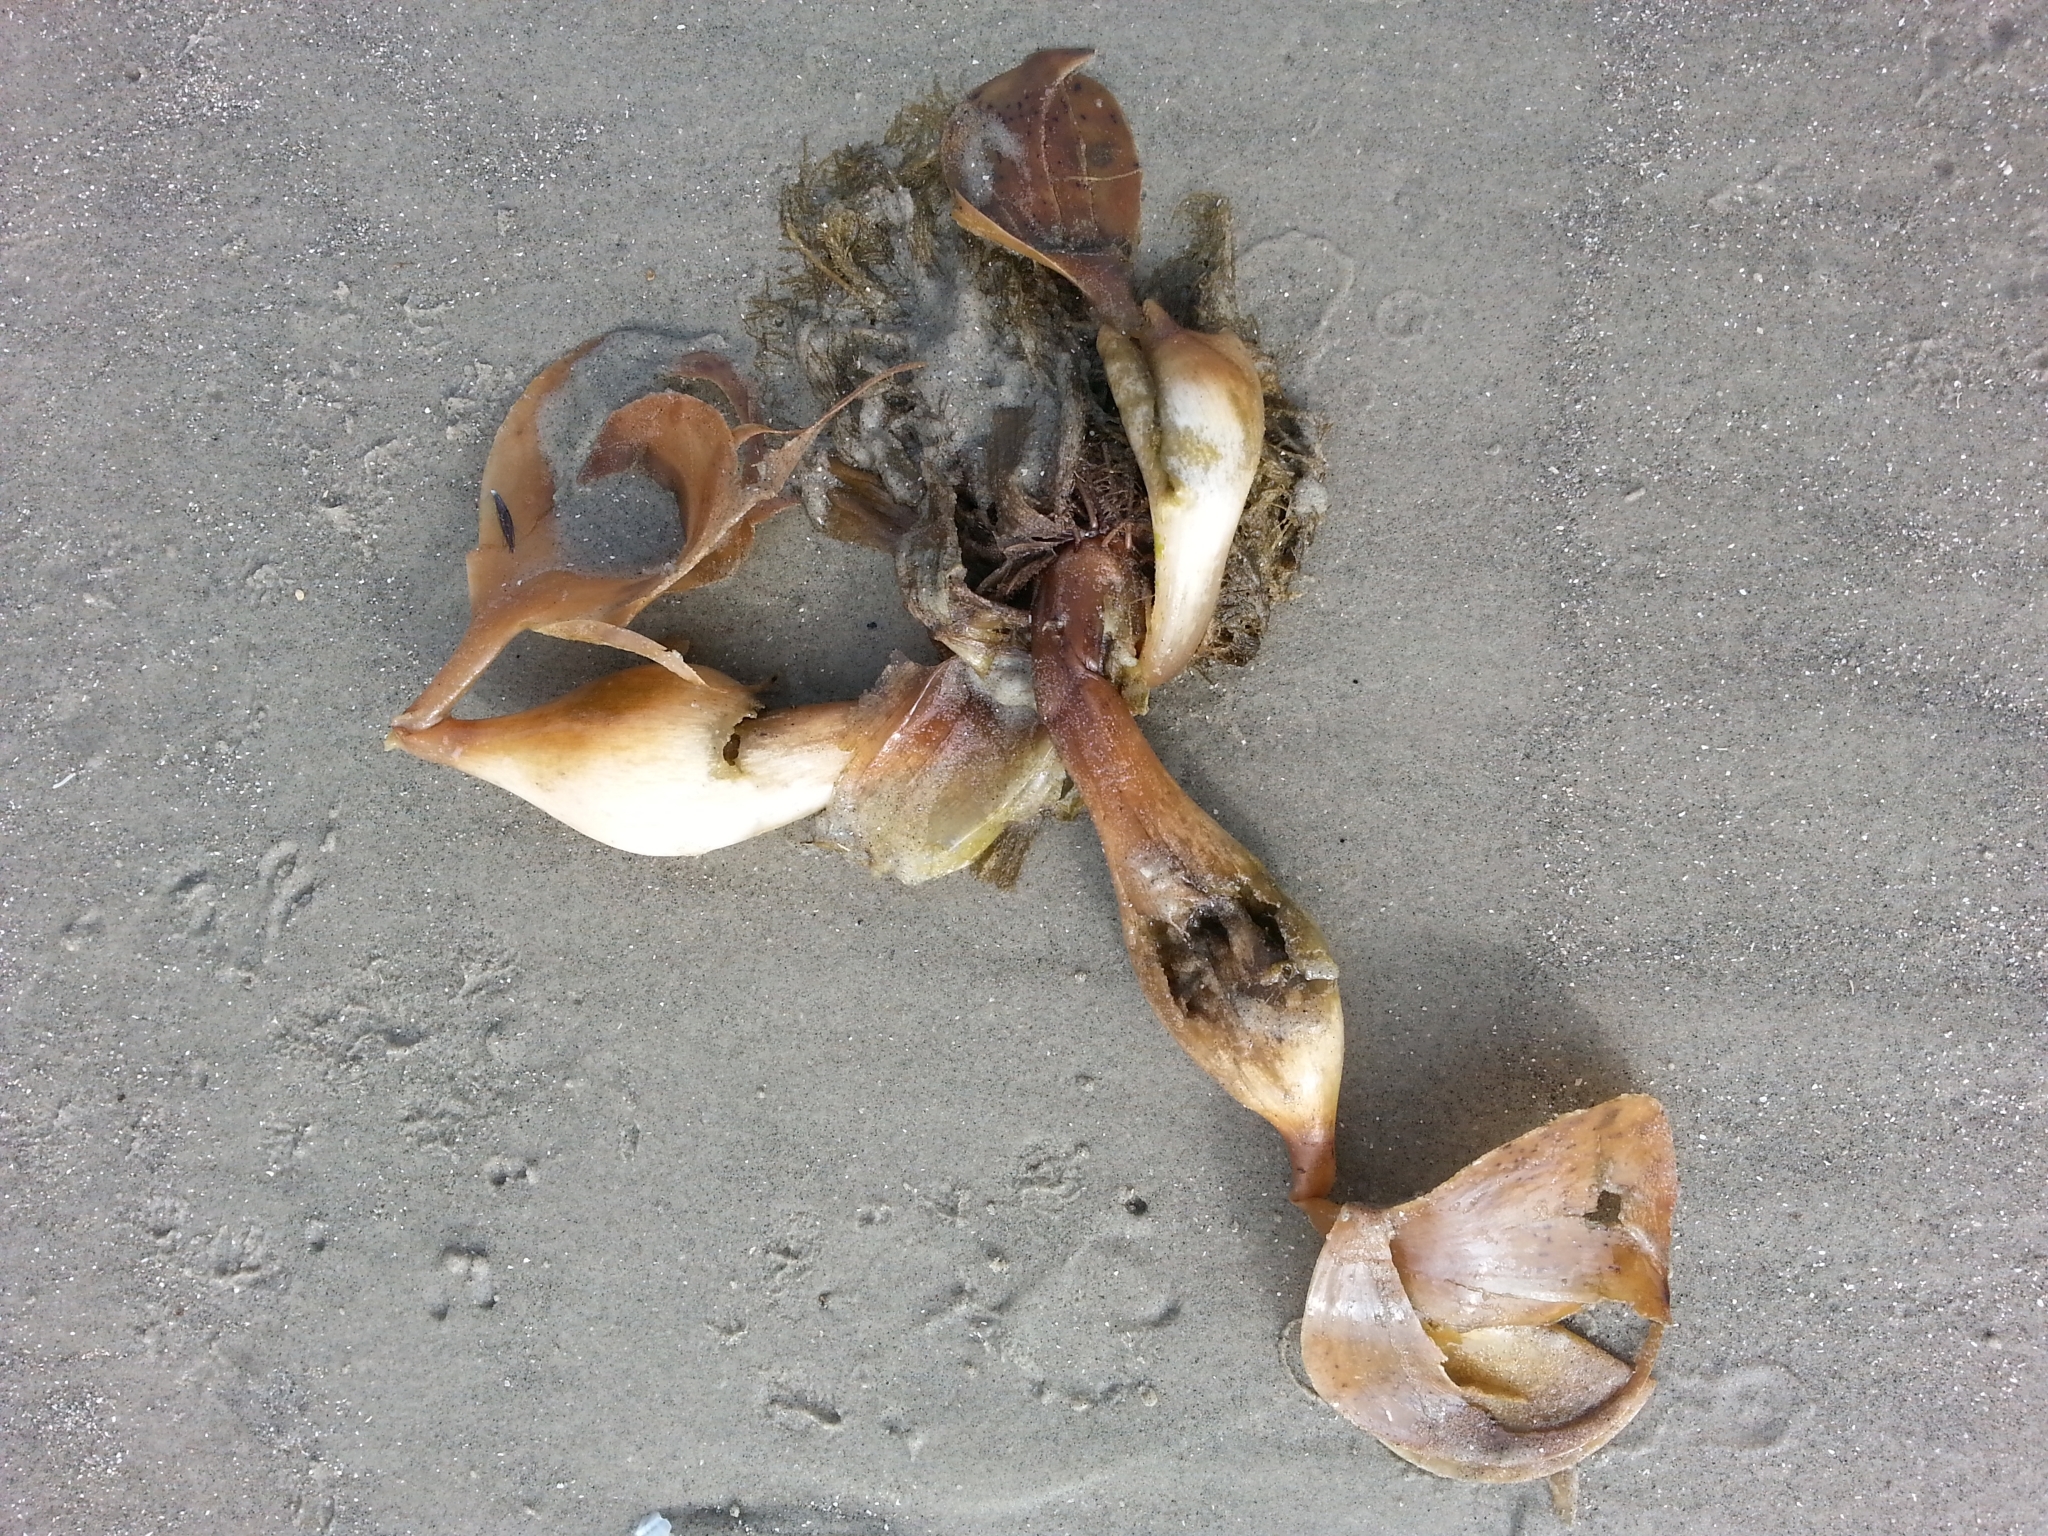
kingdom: Plantae
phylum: Tracheophyta
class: Liliopsida
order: Commelinales
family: Pontederiaceae
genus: Pontederia
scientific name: Pontederia crassipes
